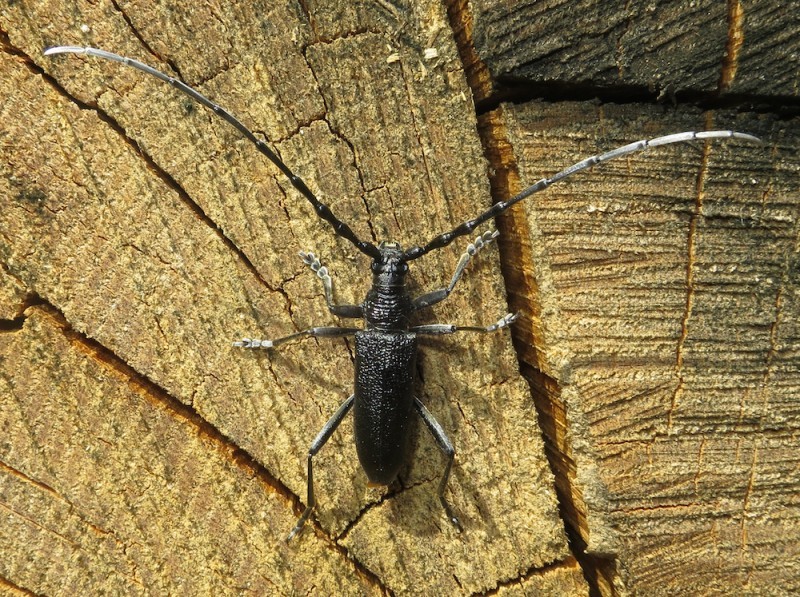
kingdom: Animalia
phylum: Arthropoda
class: Insecta
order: Coleoptera
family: Cerambycidae
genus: Cerambyx
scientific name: Cerambyx scopolii
